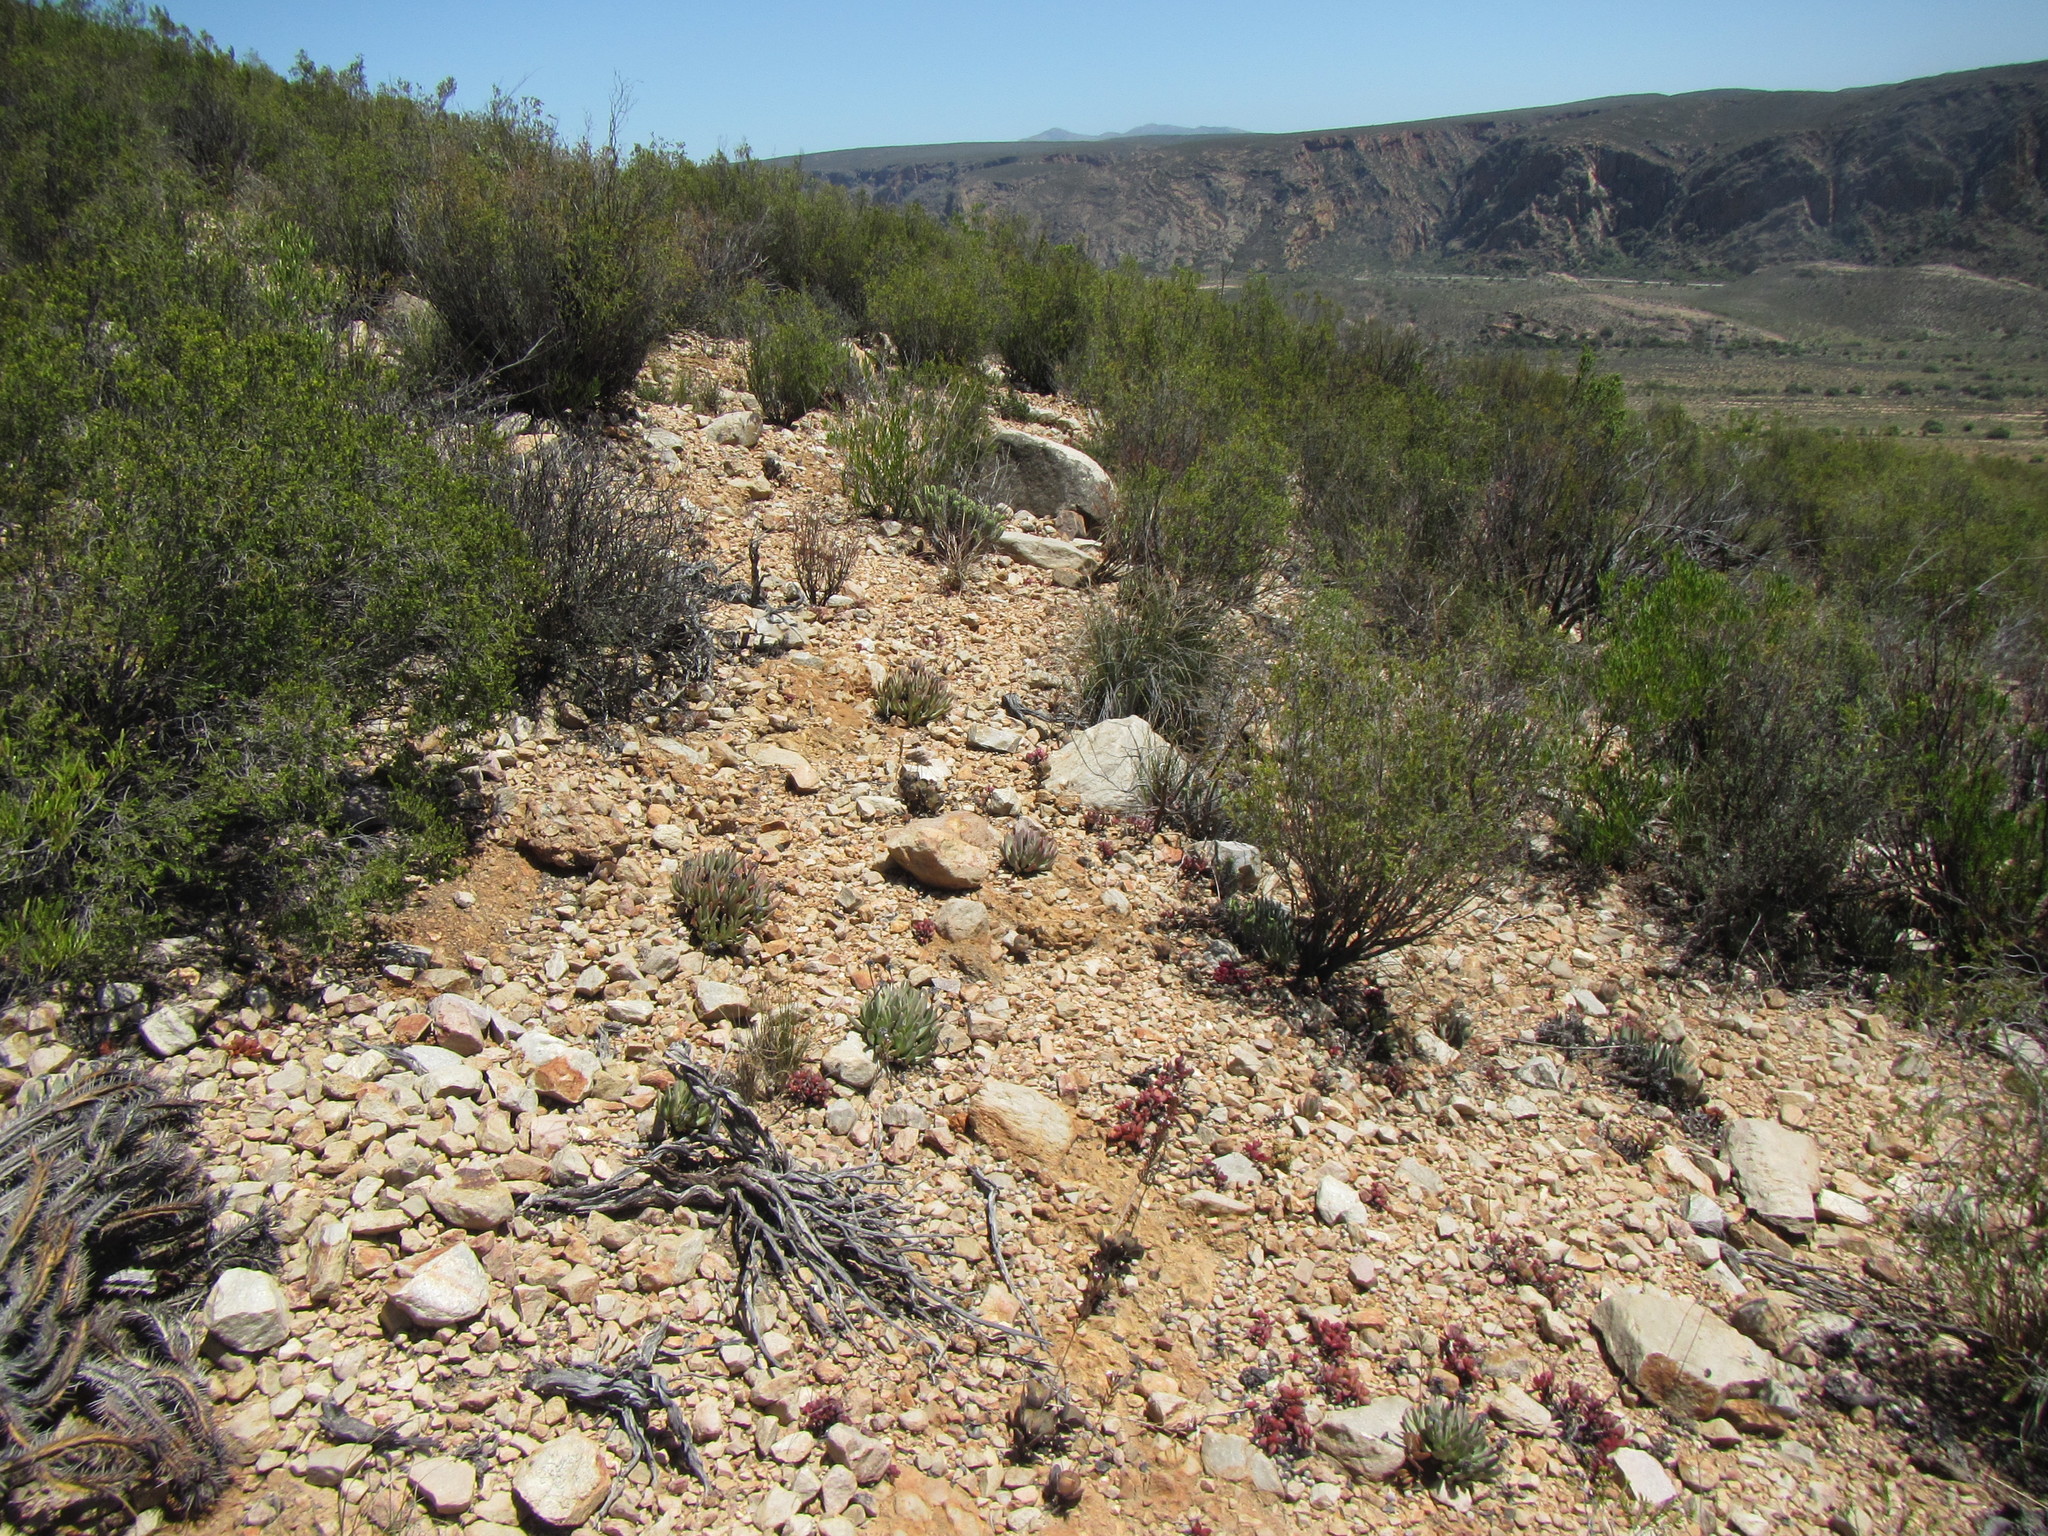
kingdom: Plantae
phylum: Tracheophyta
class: Magnoliopsida
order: Caryophyllales
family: Aizoaceae
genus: Machairophyllum
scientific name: Machairophyllum bijlii
